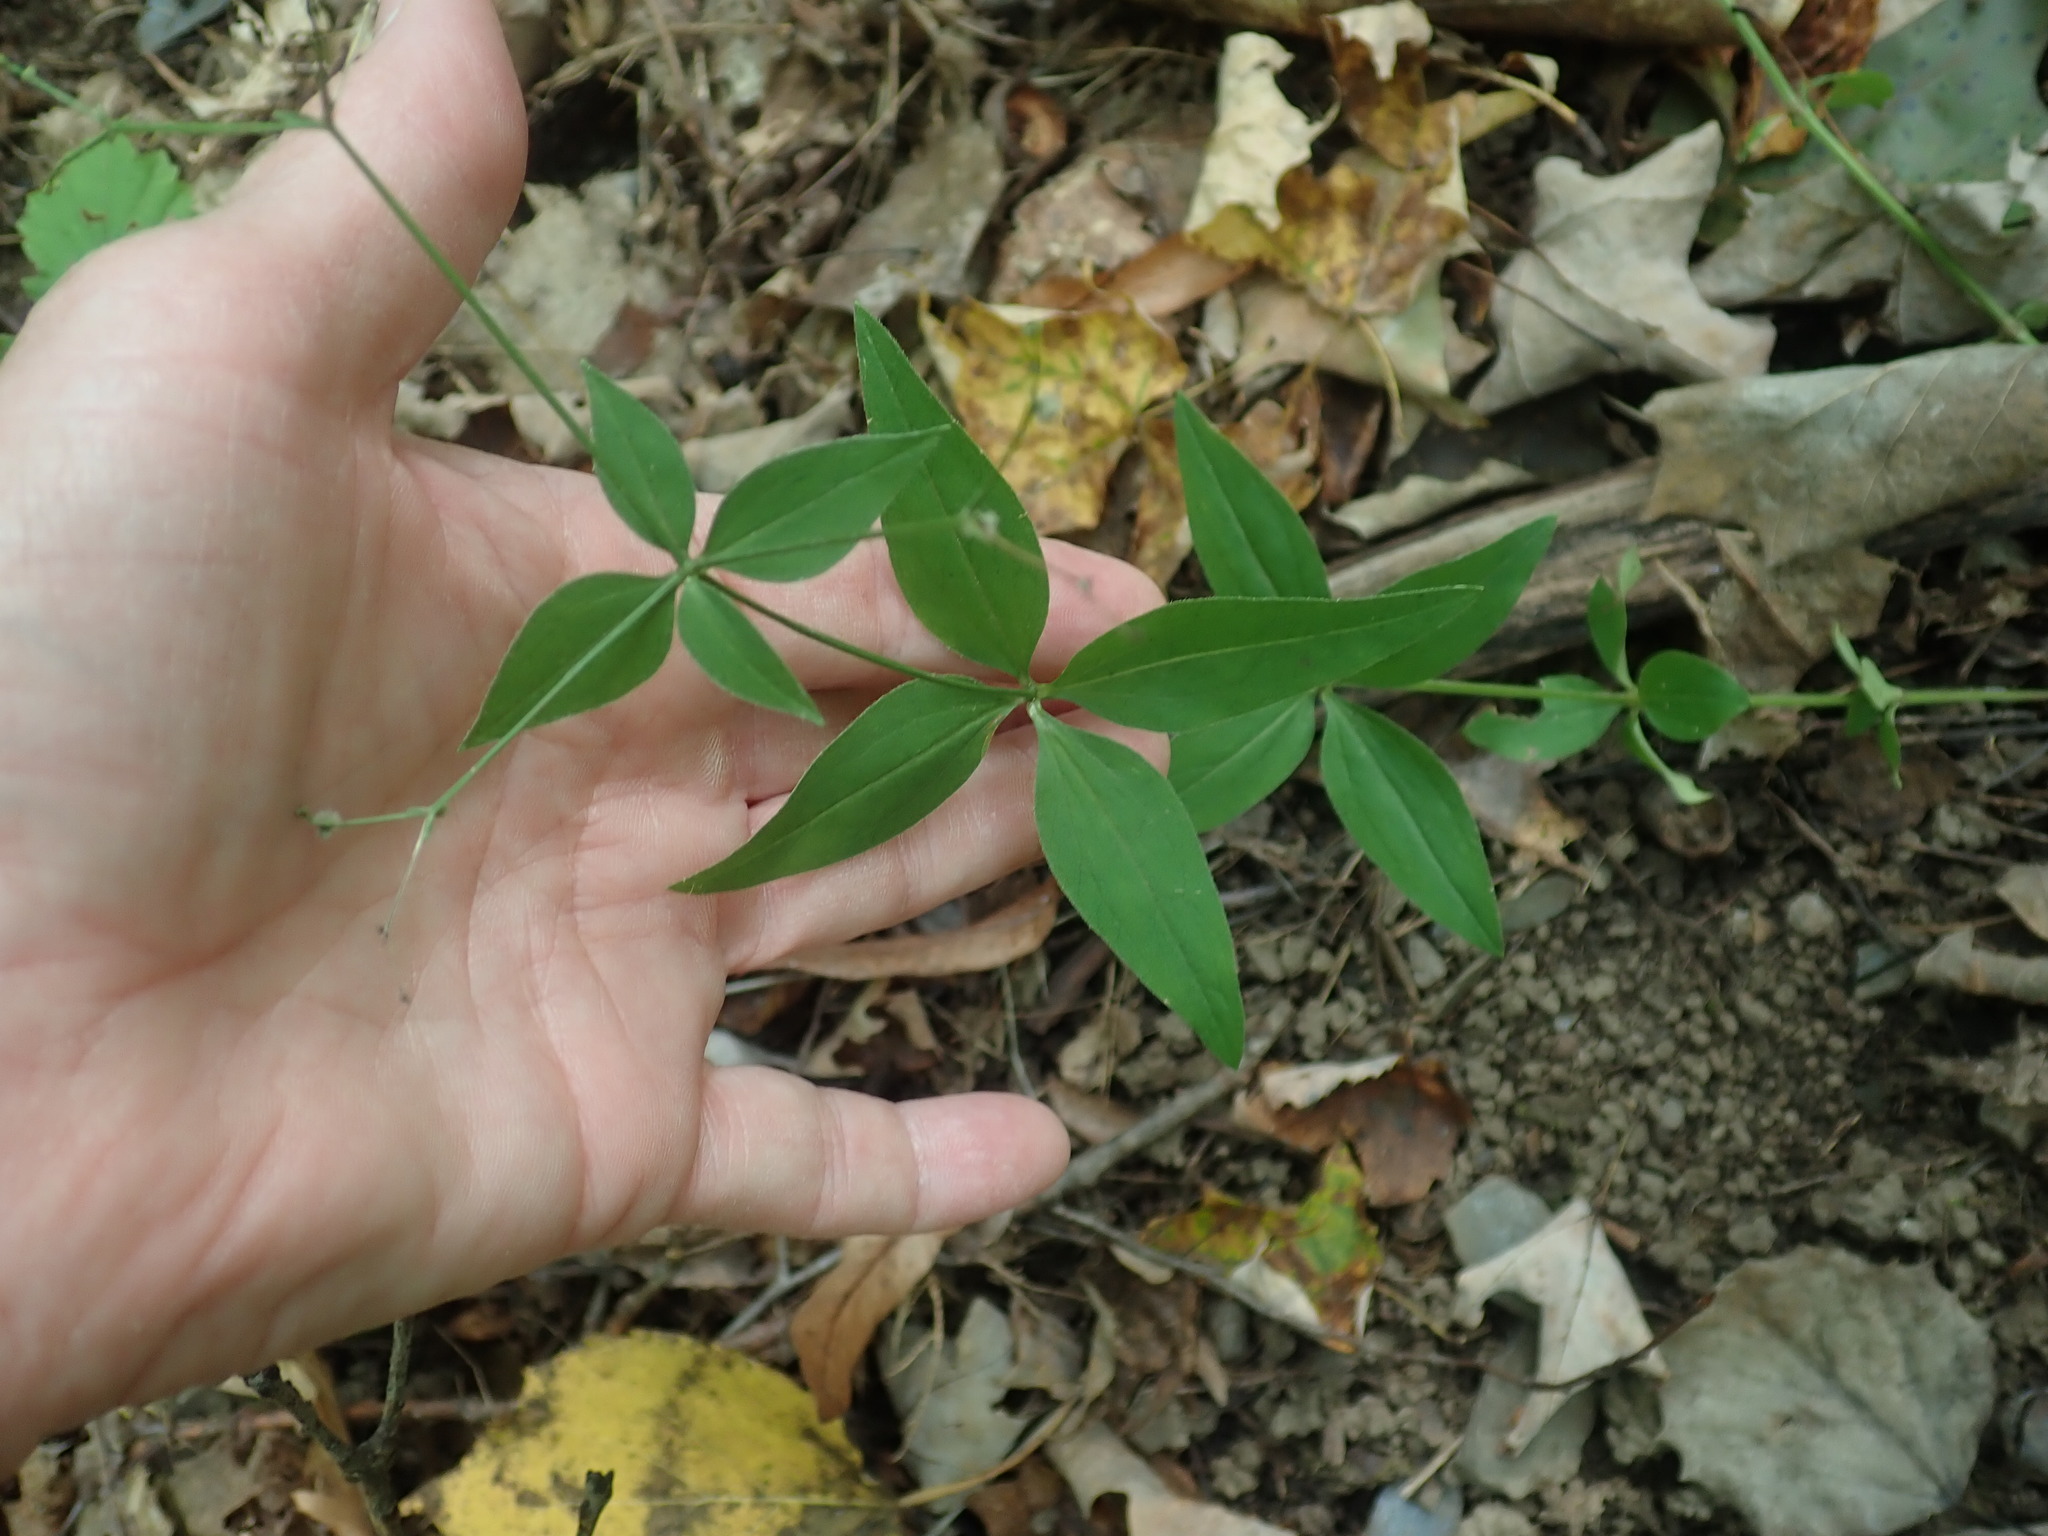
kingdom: Plantae
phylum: Tracheophyta
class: Magnoliopsida
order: Gentianales
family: Rubiaceae
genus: Galium
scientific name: Galium lanceolatum
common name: Lance-leaved wild licorice
